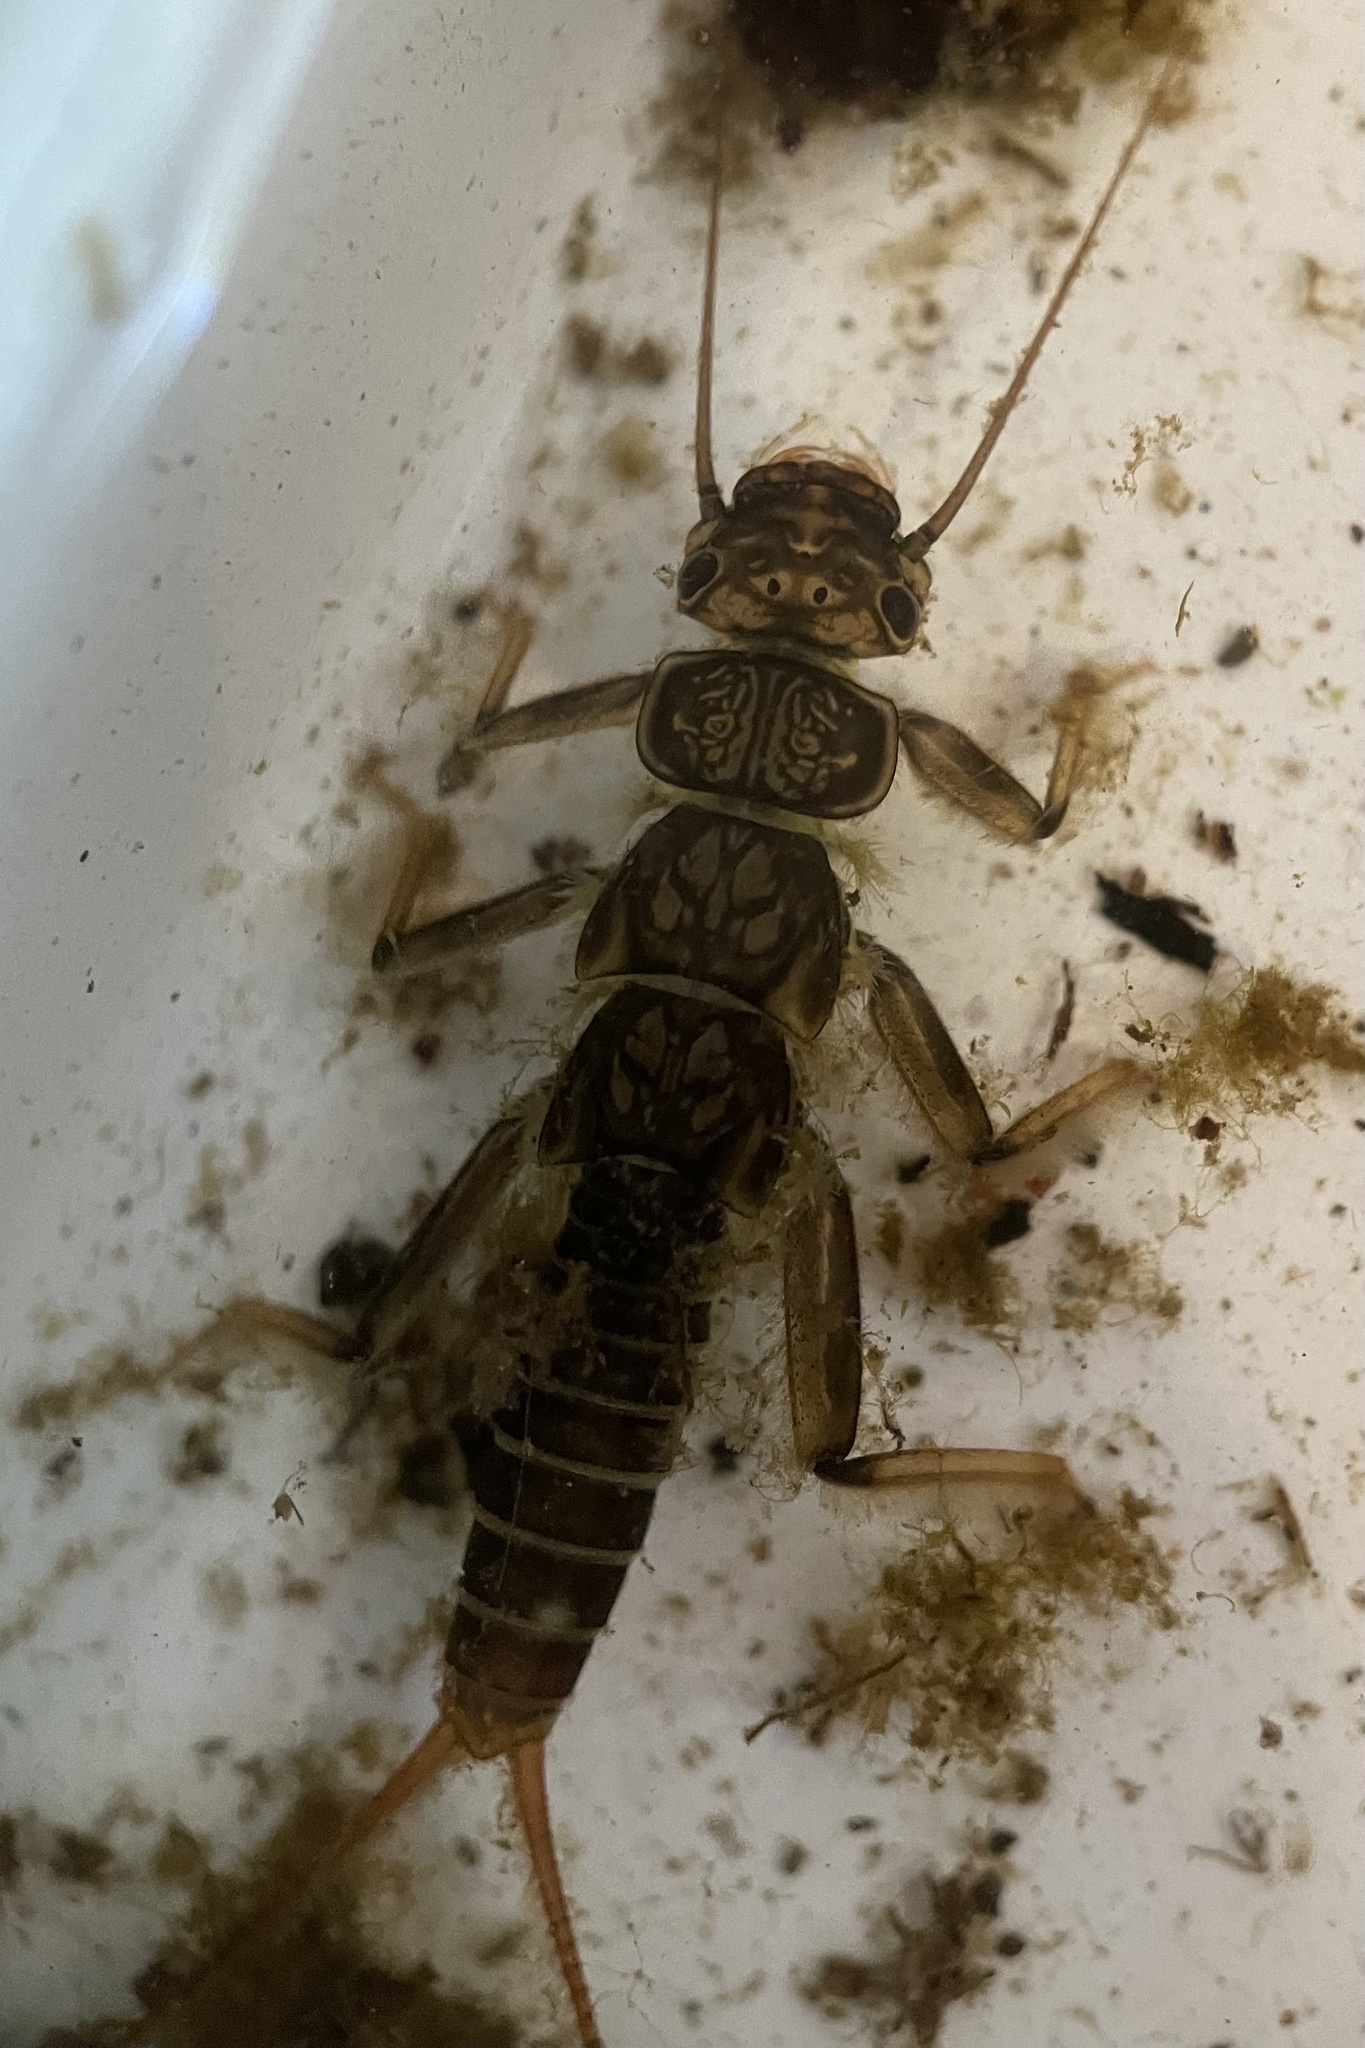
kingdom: Animalia
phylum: Arthropoda
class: Insecta
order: Plecoptera
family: Perlidae
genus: Calineuria
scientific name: Calineuria californica
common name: Western stone
